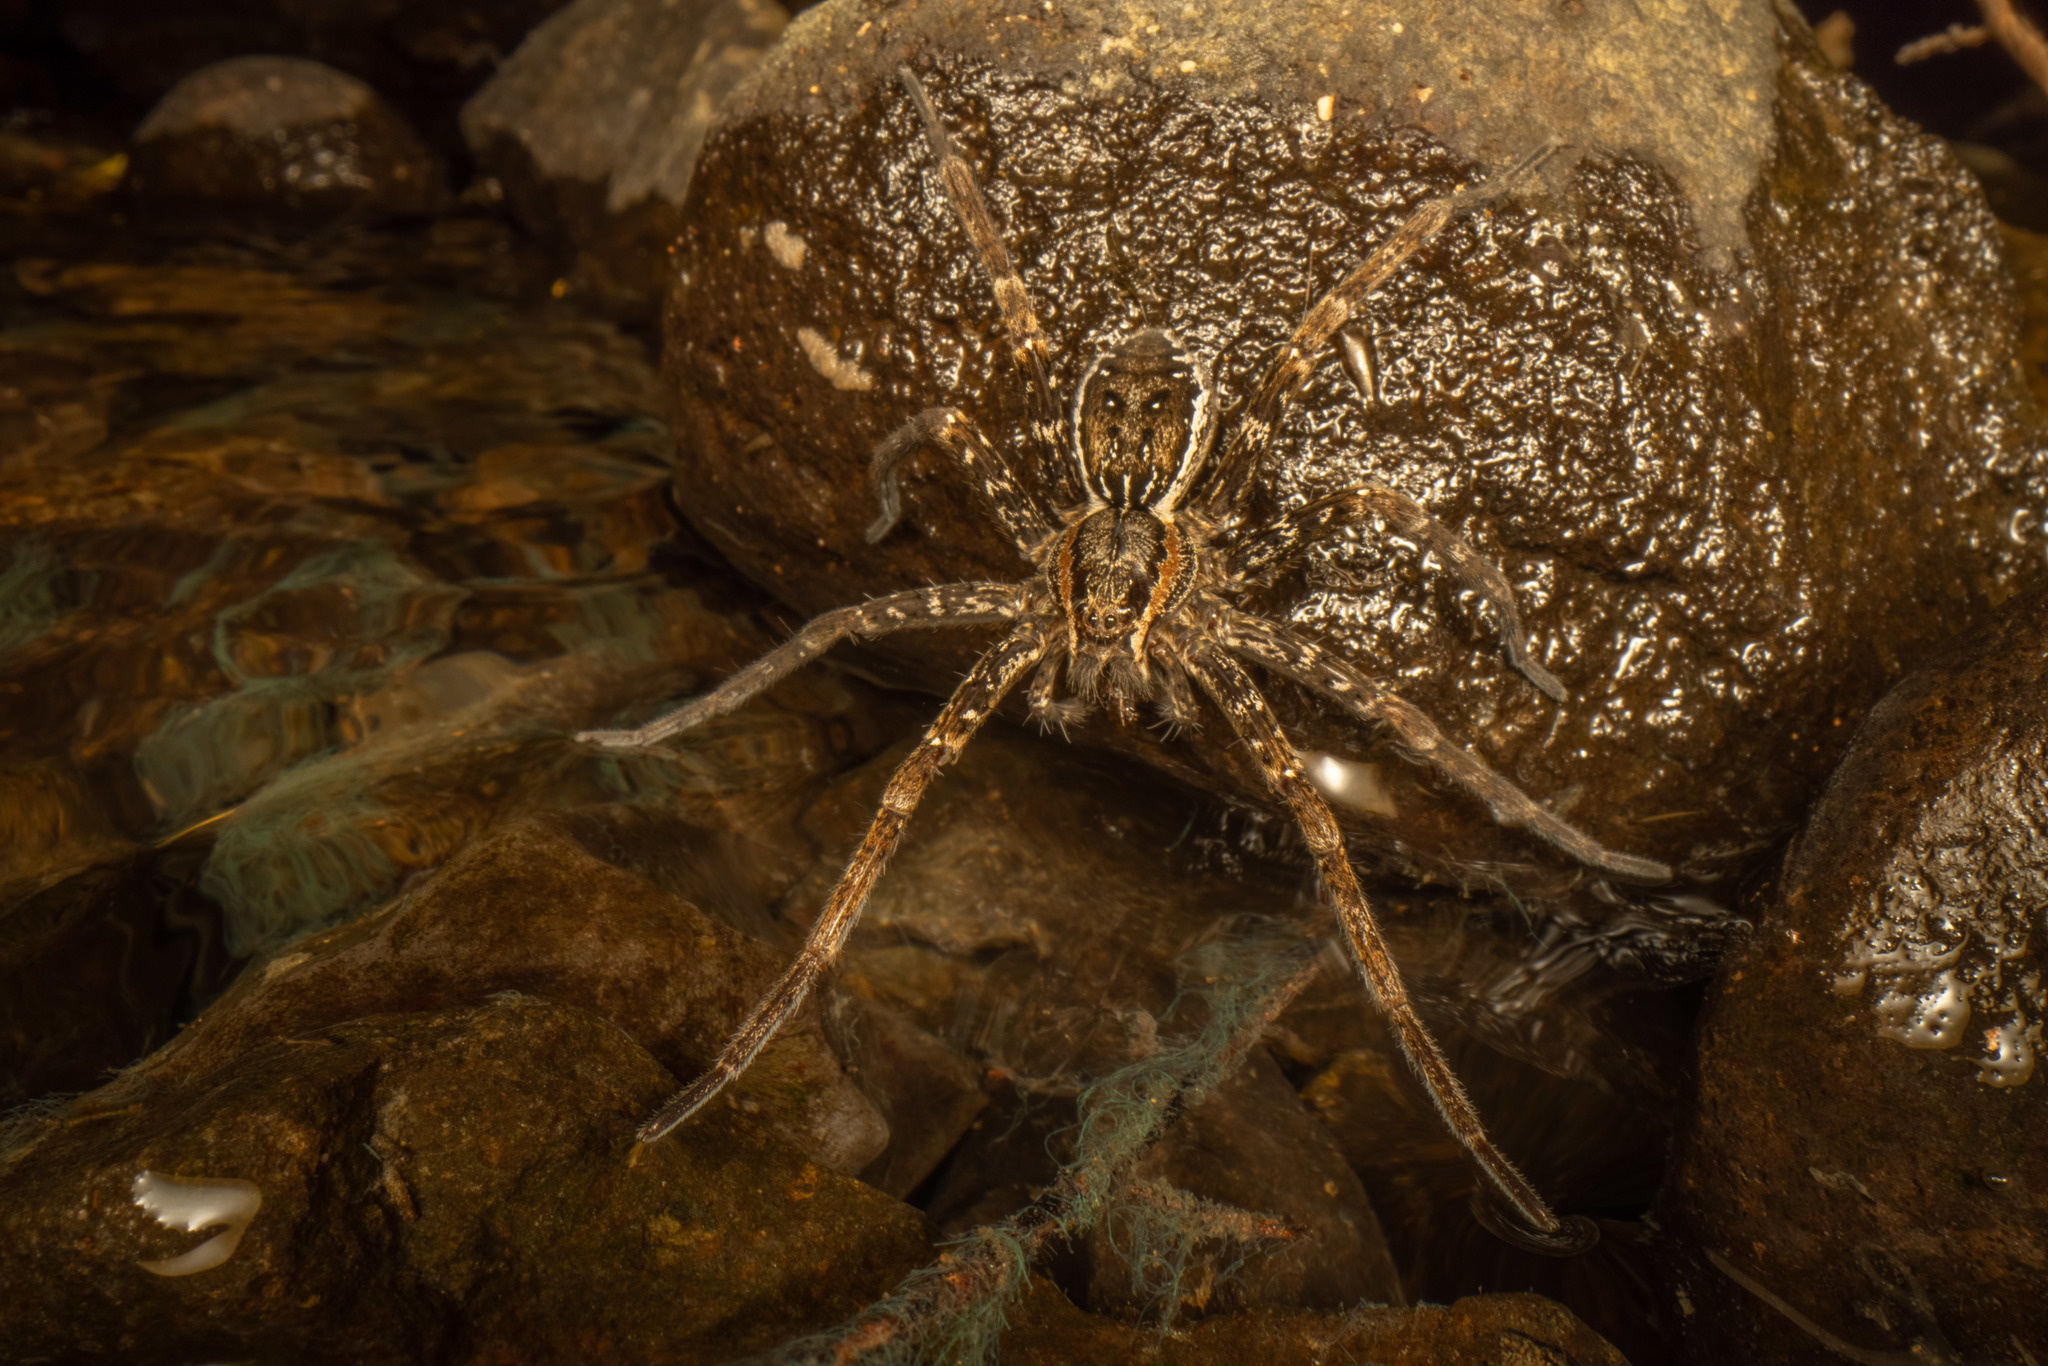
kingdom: Animalia
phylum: Arthropoda
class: Arachnida
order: Araneae
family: Pisauridae
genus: Dolomedes
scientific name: Dolomedes dondalei
